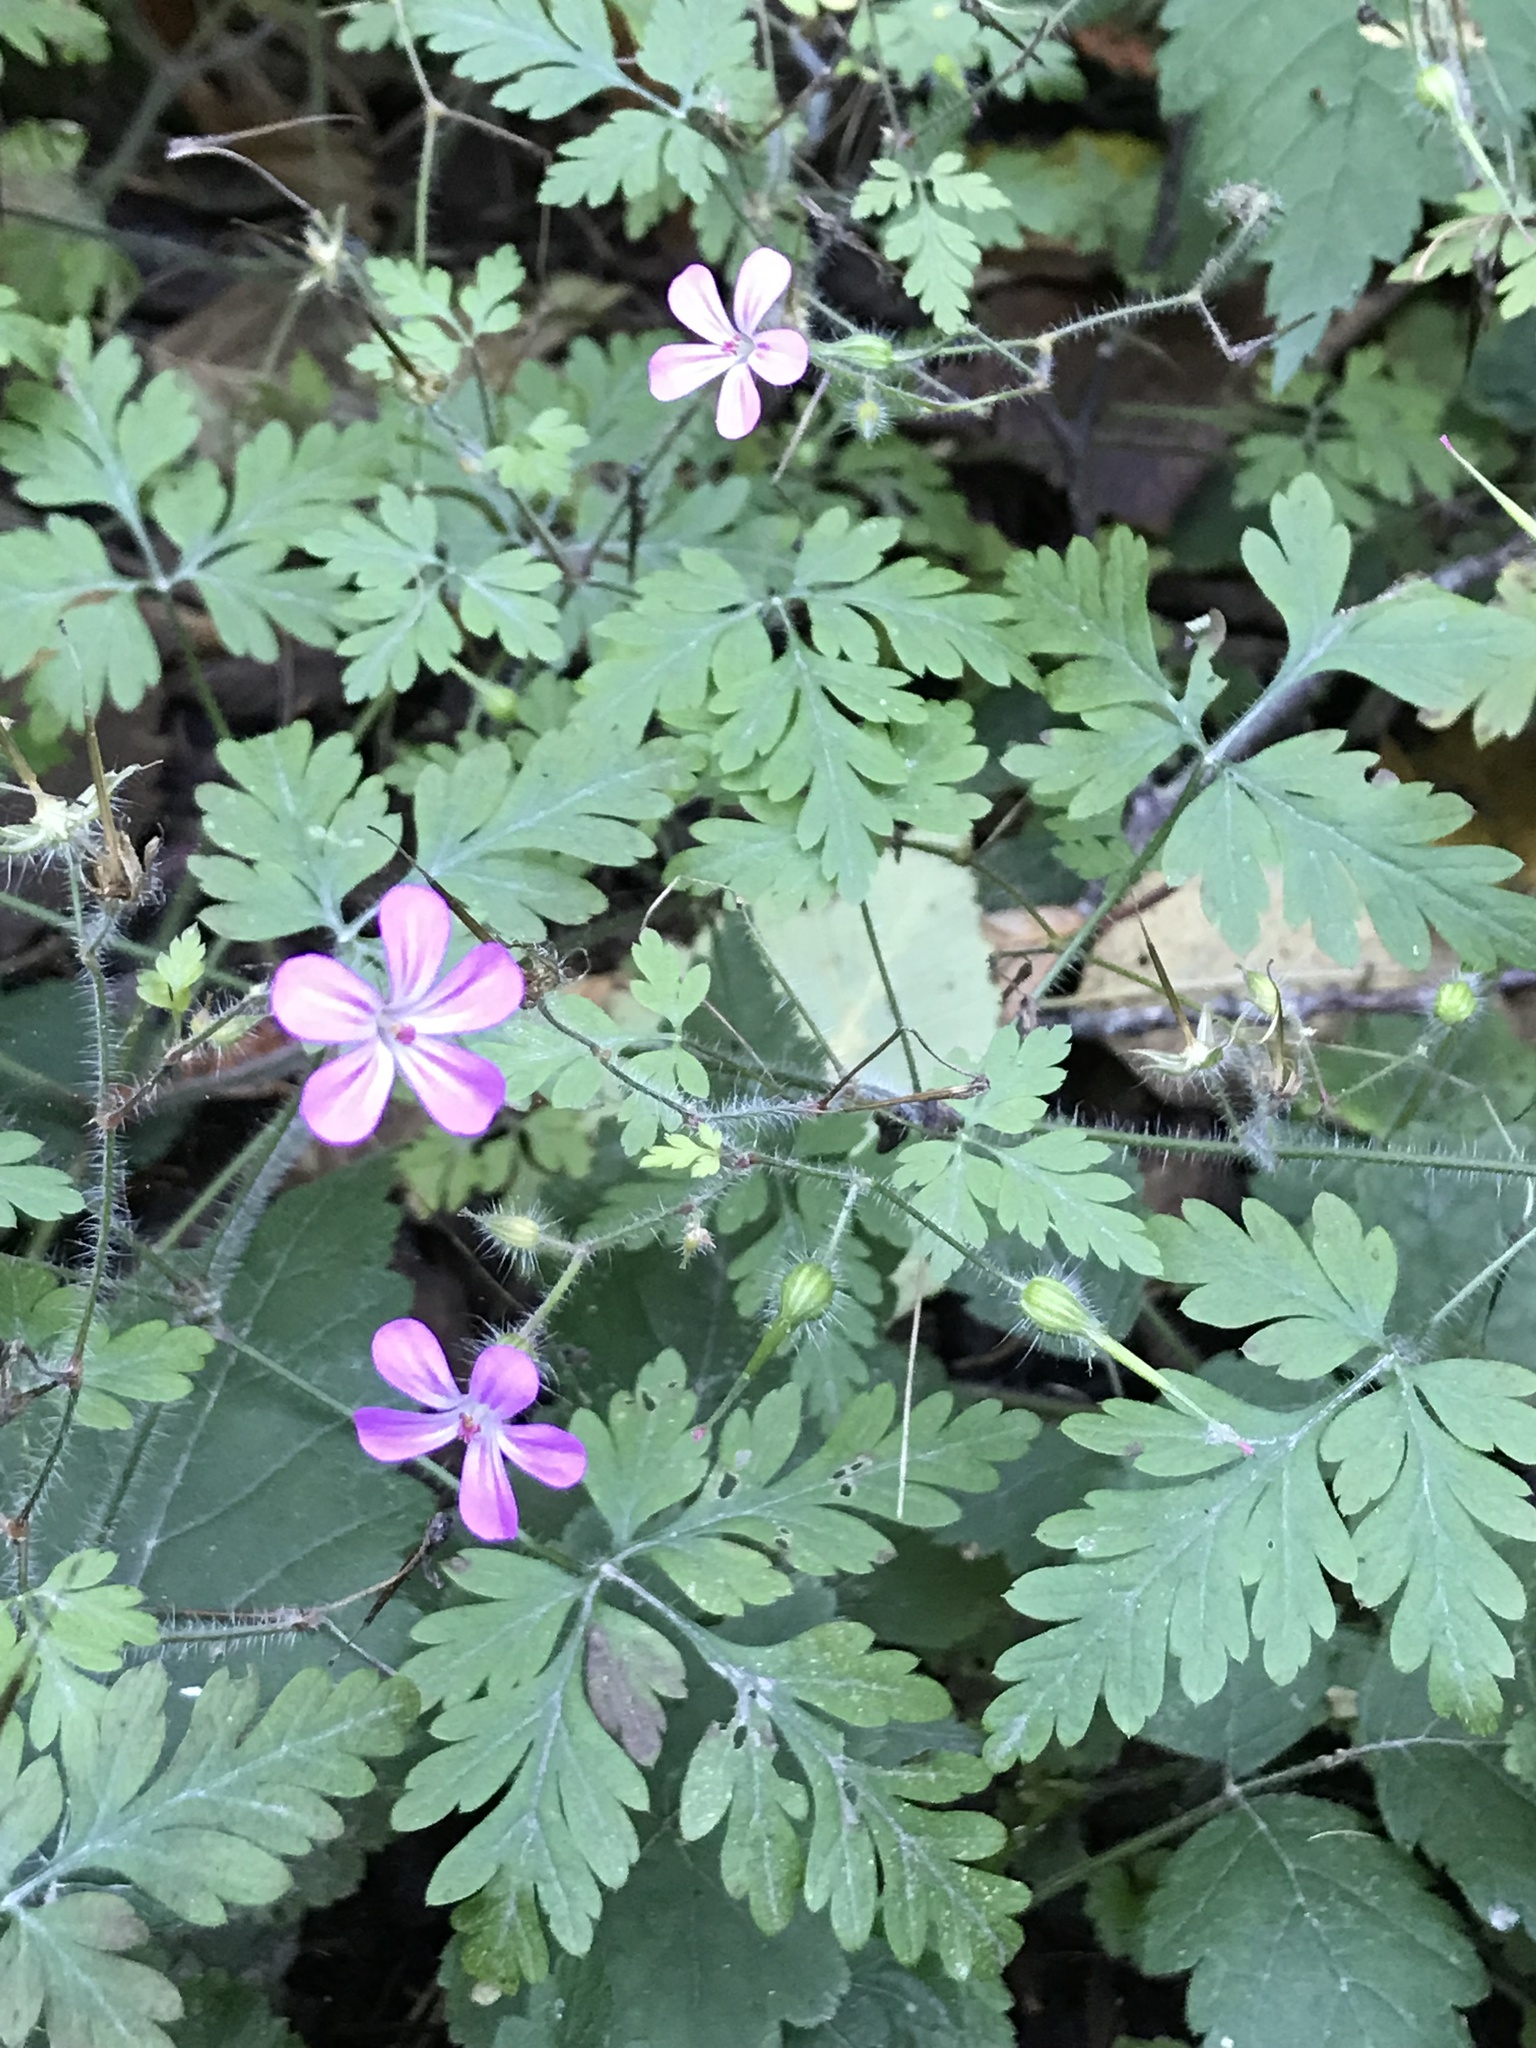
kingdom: Plantae
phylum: Tracheophyta
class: Magnoliopsida
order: Geraniales
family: Geraniaceae
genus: Geranium
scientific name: Geranium robertianum
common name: Herb-robert
